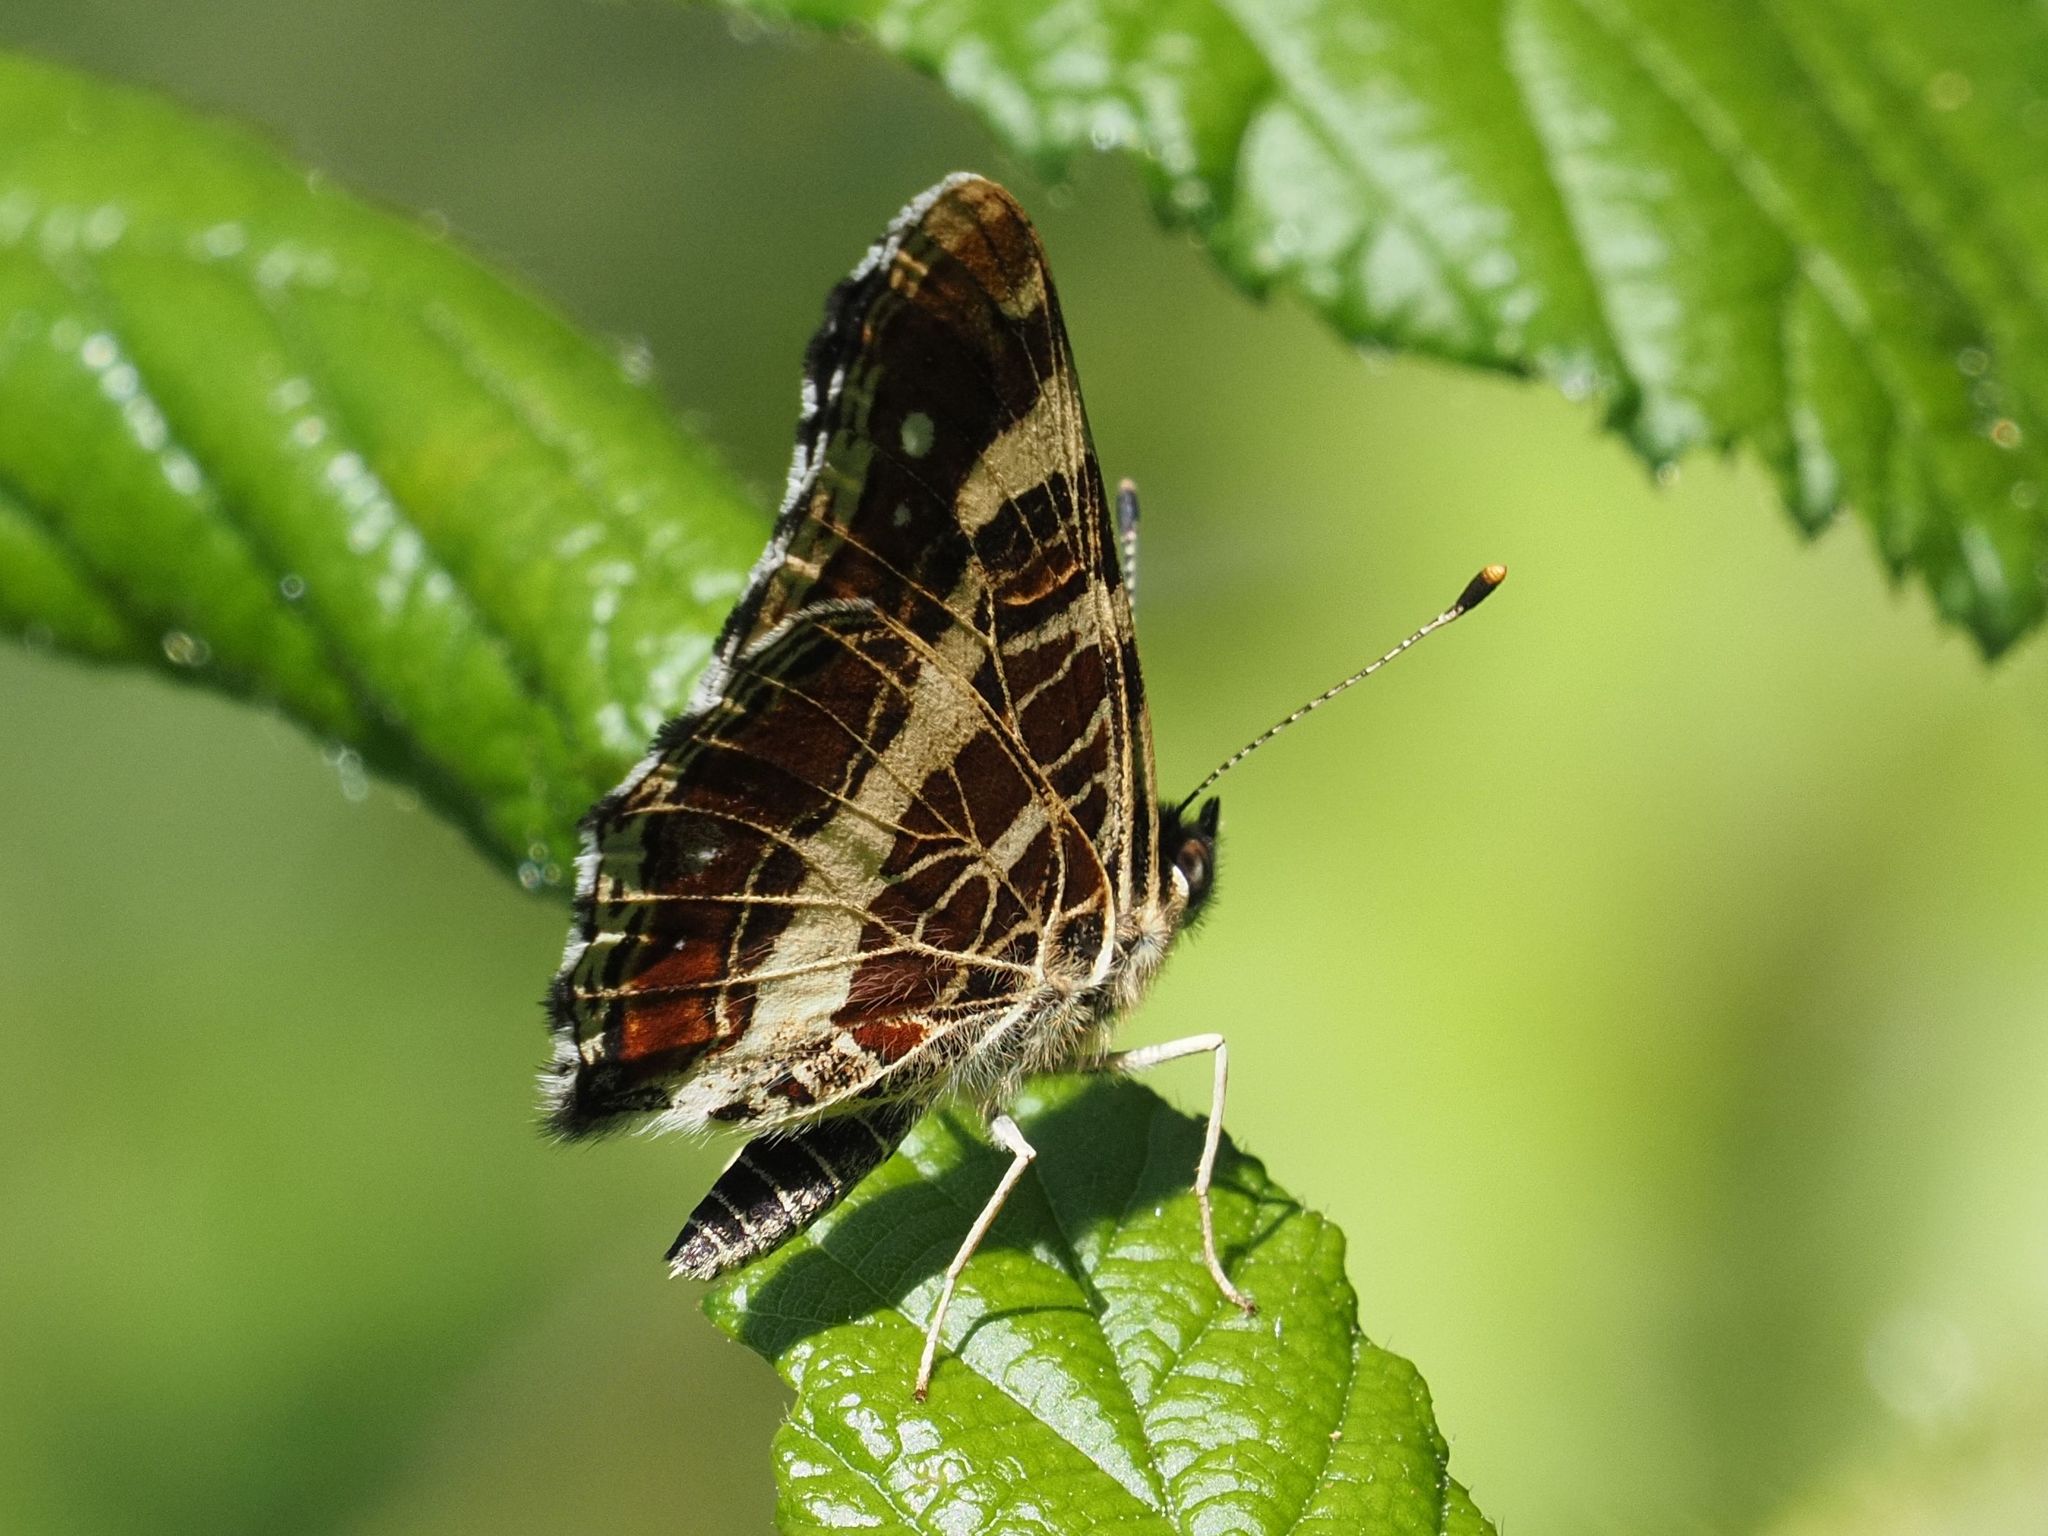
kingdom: Animalia
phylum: Arthropoda
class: Insecta
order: Lepidoptera
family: Nymphalidae
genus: Araschnia
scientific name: Araschnia levana
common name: Map butterfly
